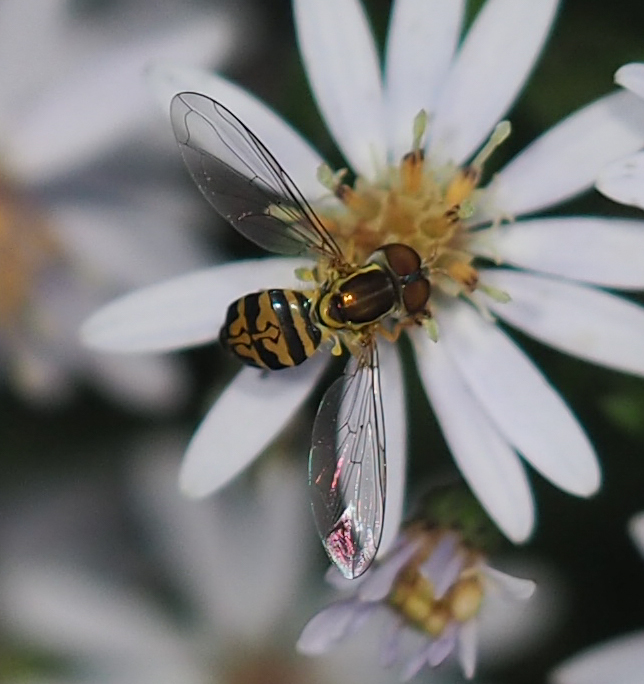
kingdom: Animalia
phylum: Arthropoda
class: Insecta
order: Diptera
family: Syrphidae
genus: Toxomerus
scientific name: Toxomerus geminatus
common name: Eastern calligrapher
